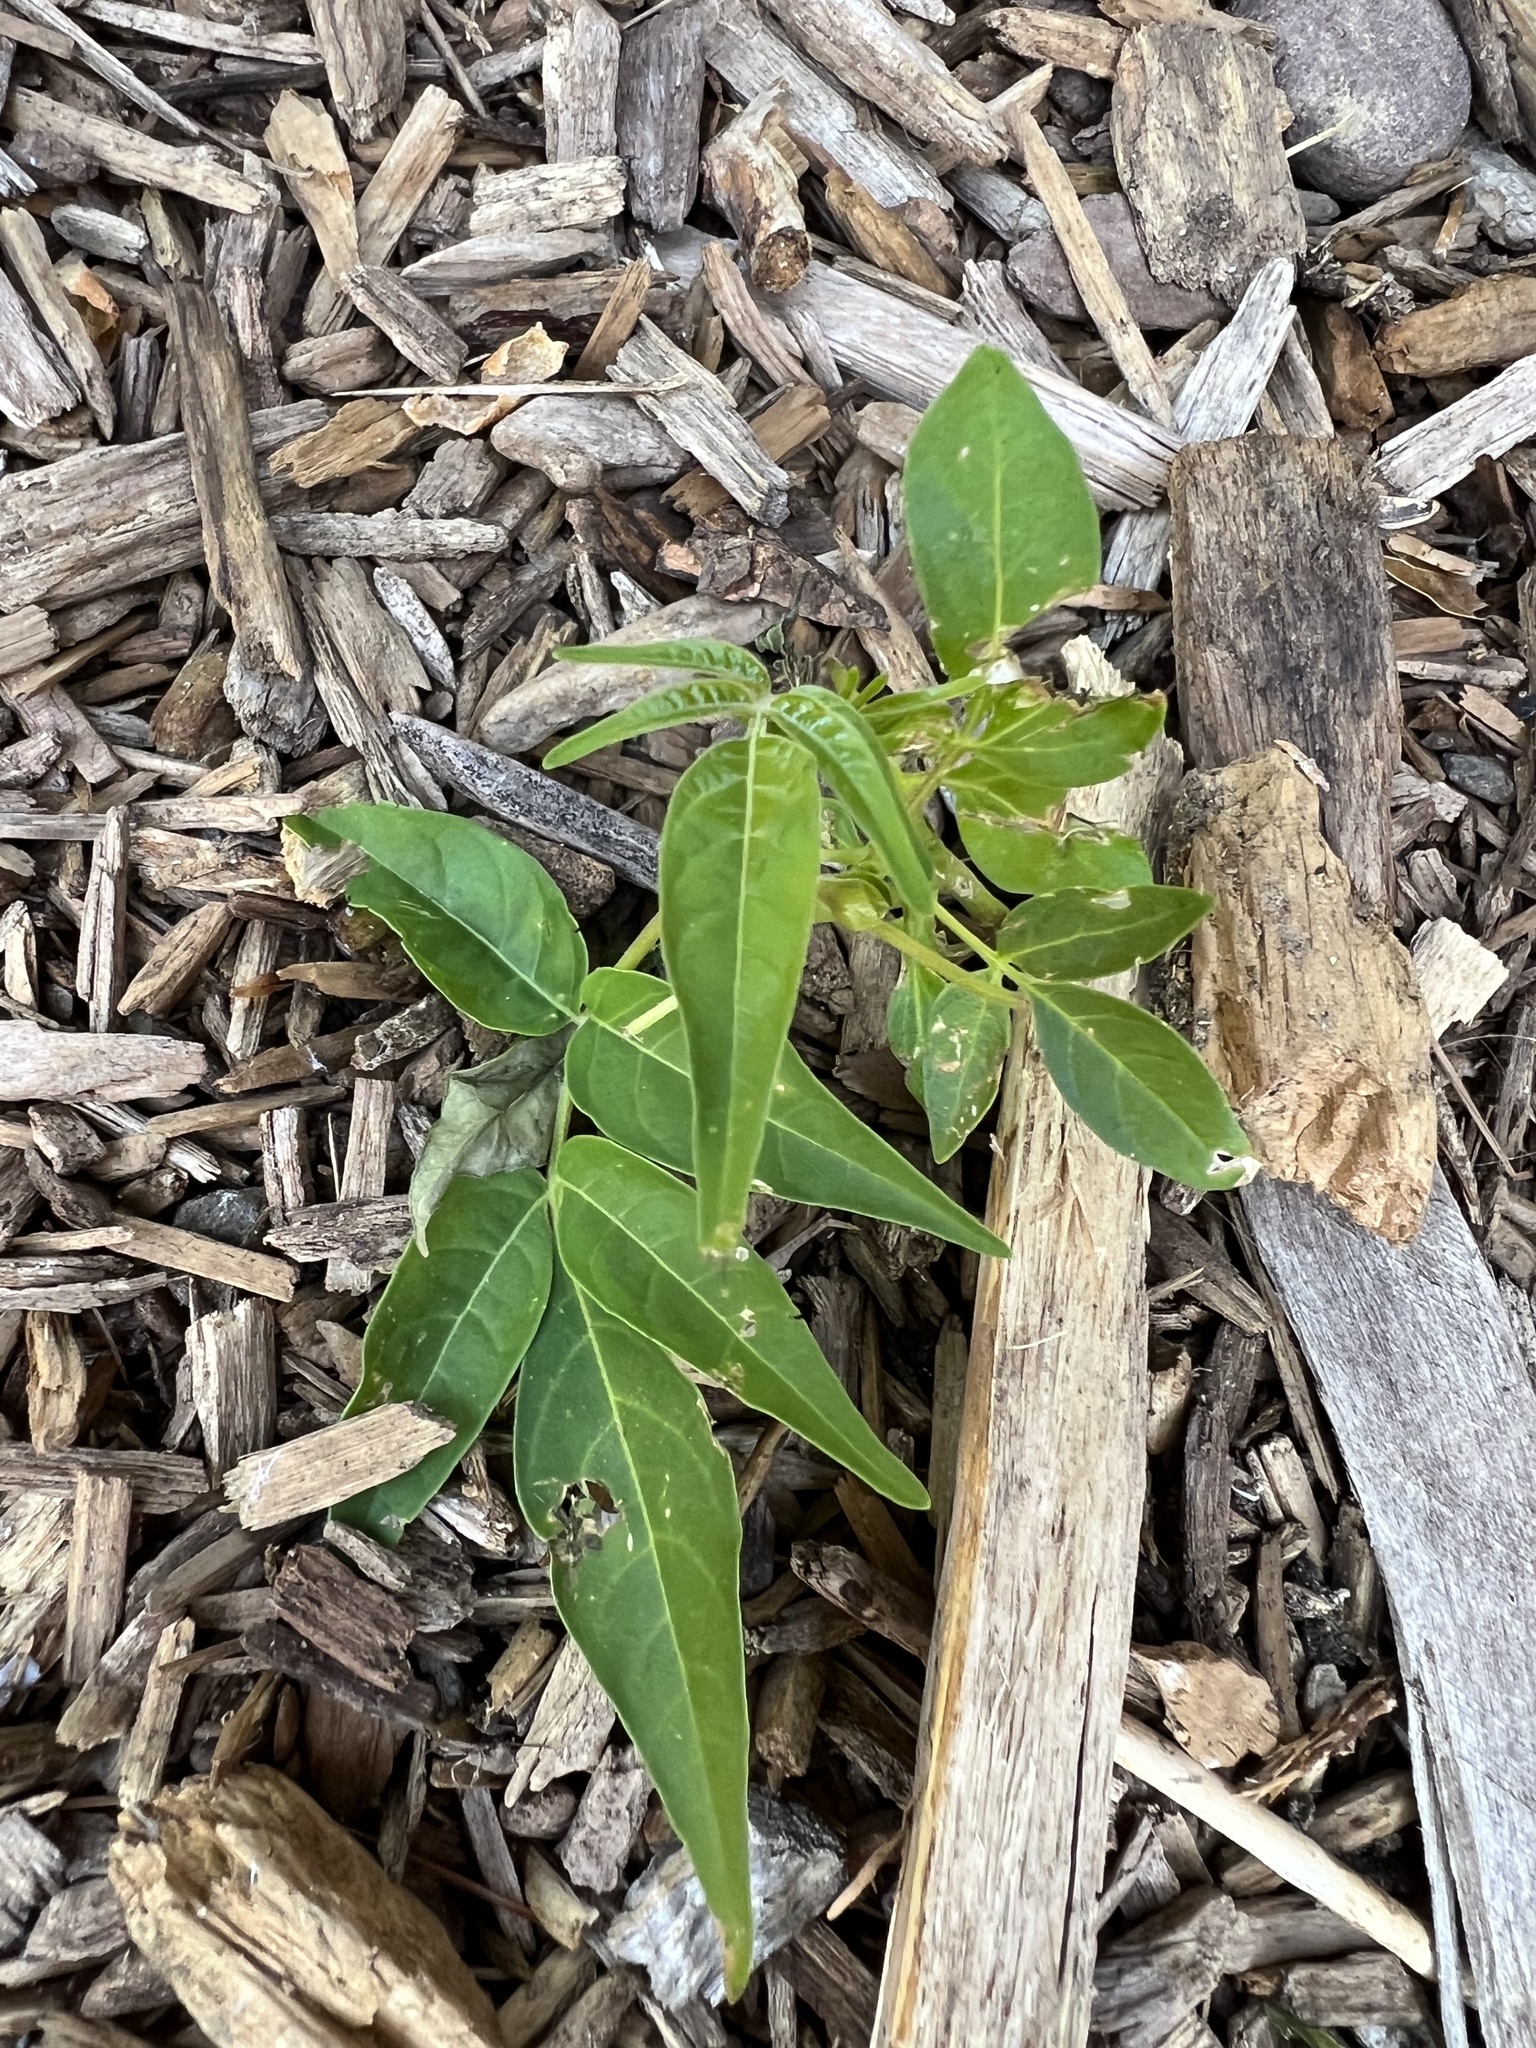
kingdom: Plantae
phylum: Tracheophyta
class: Magnoliopsida
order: Sapindales
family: Simaroubaceae
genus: Ailanthus
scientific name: Ailanthus altissima
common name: Tree-of-heaven
